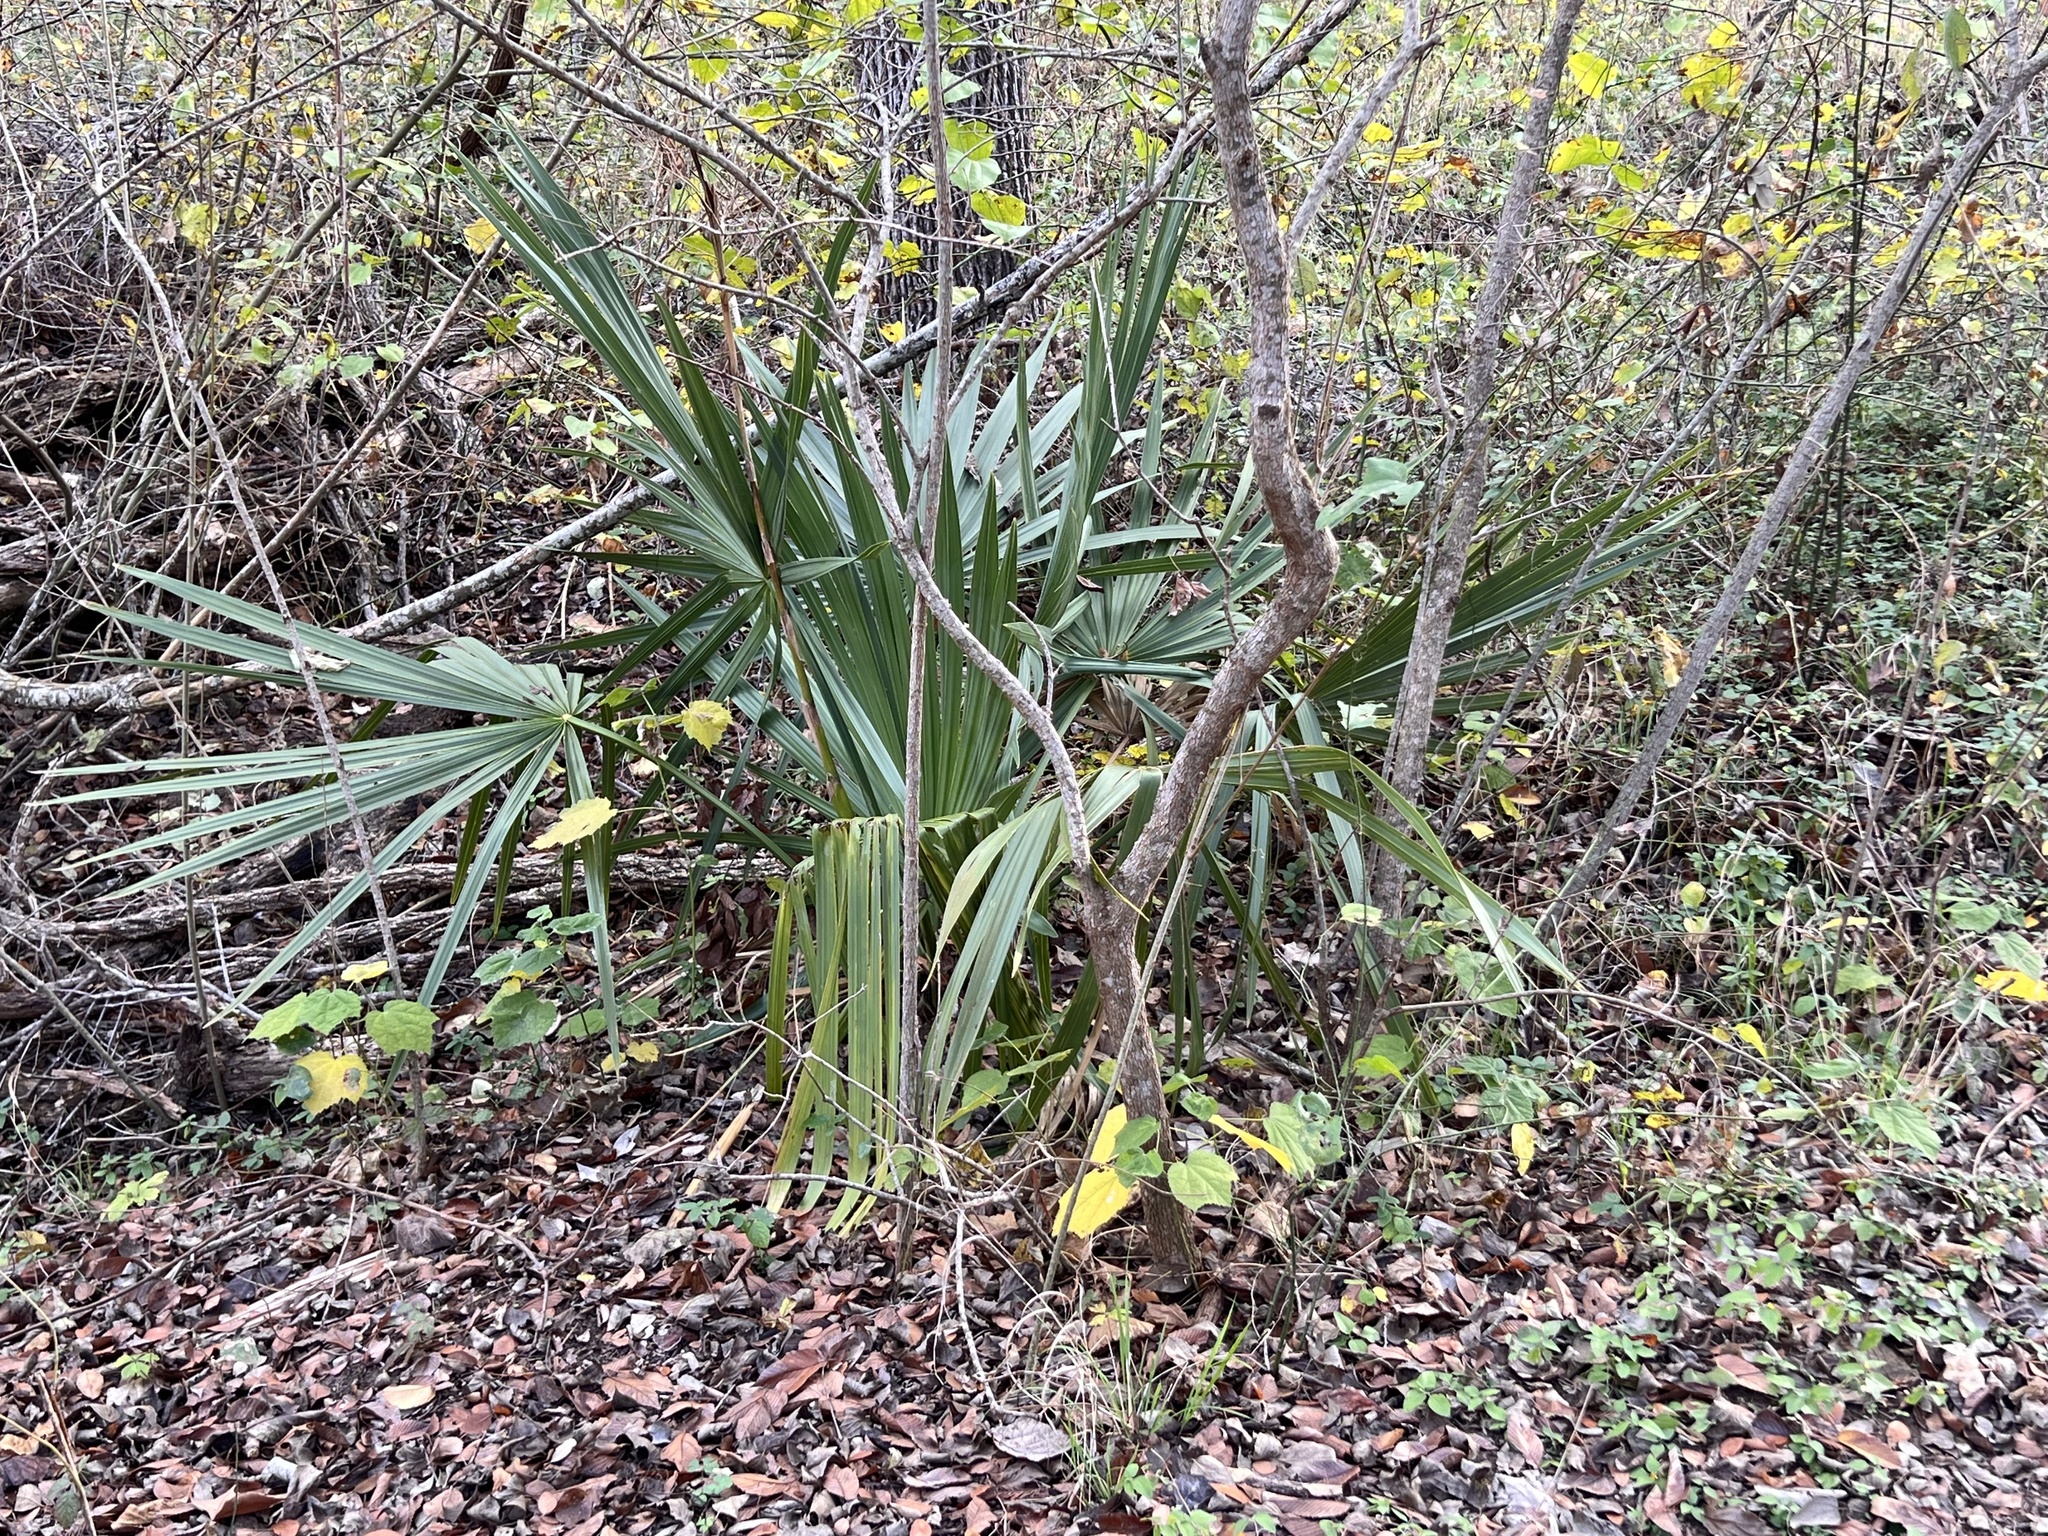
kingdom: Plantae
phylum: Tracheophyta
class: Liliopsida
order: Arecales
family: Arecaceae
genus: Sabal
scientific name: Sabal minor
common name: Dwarf palmetto
